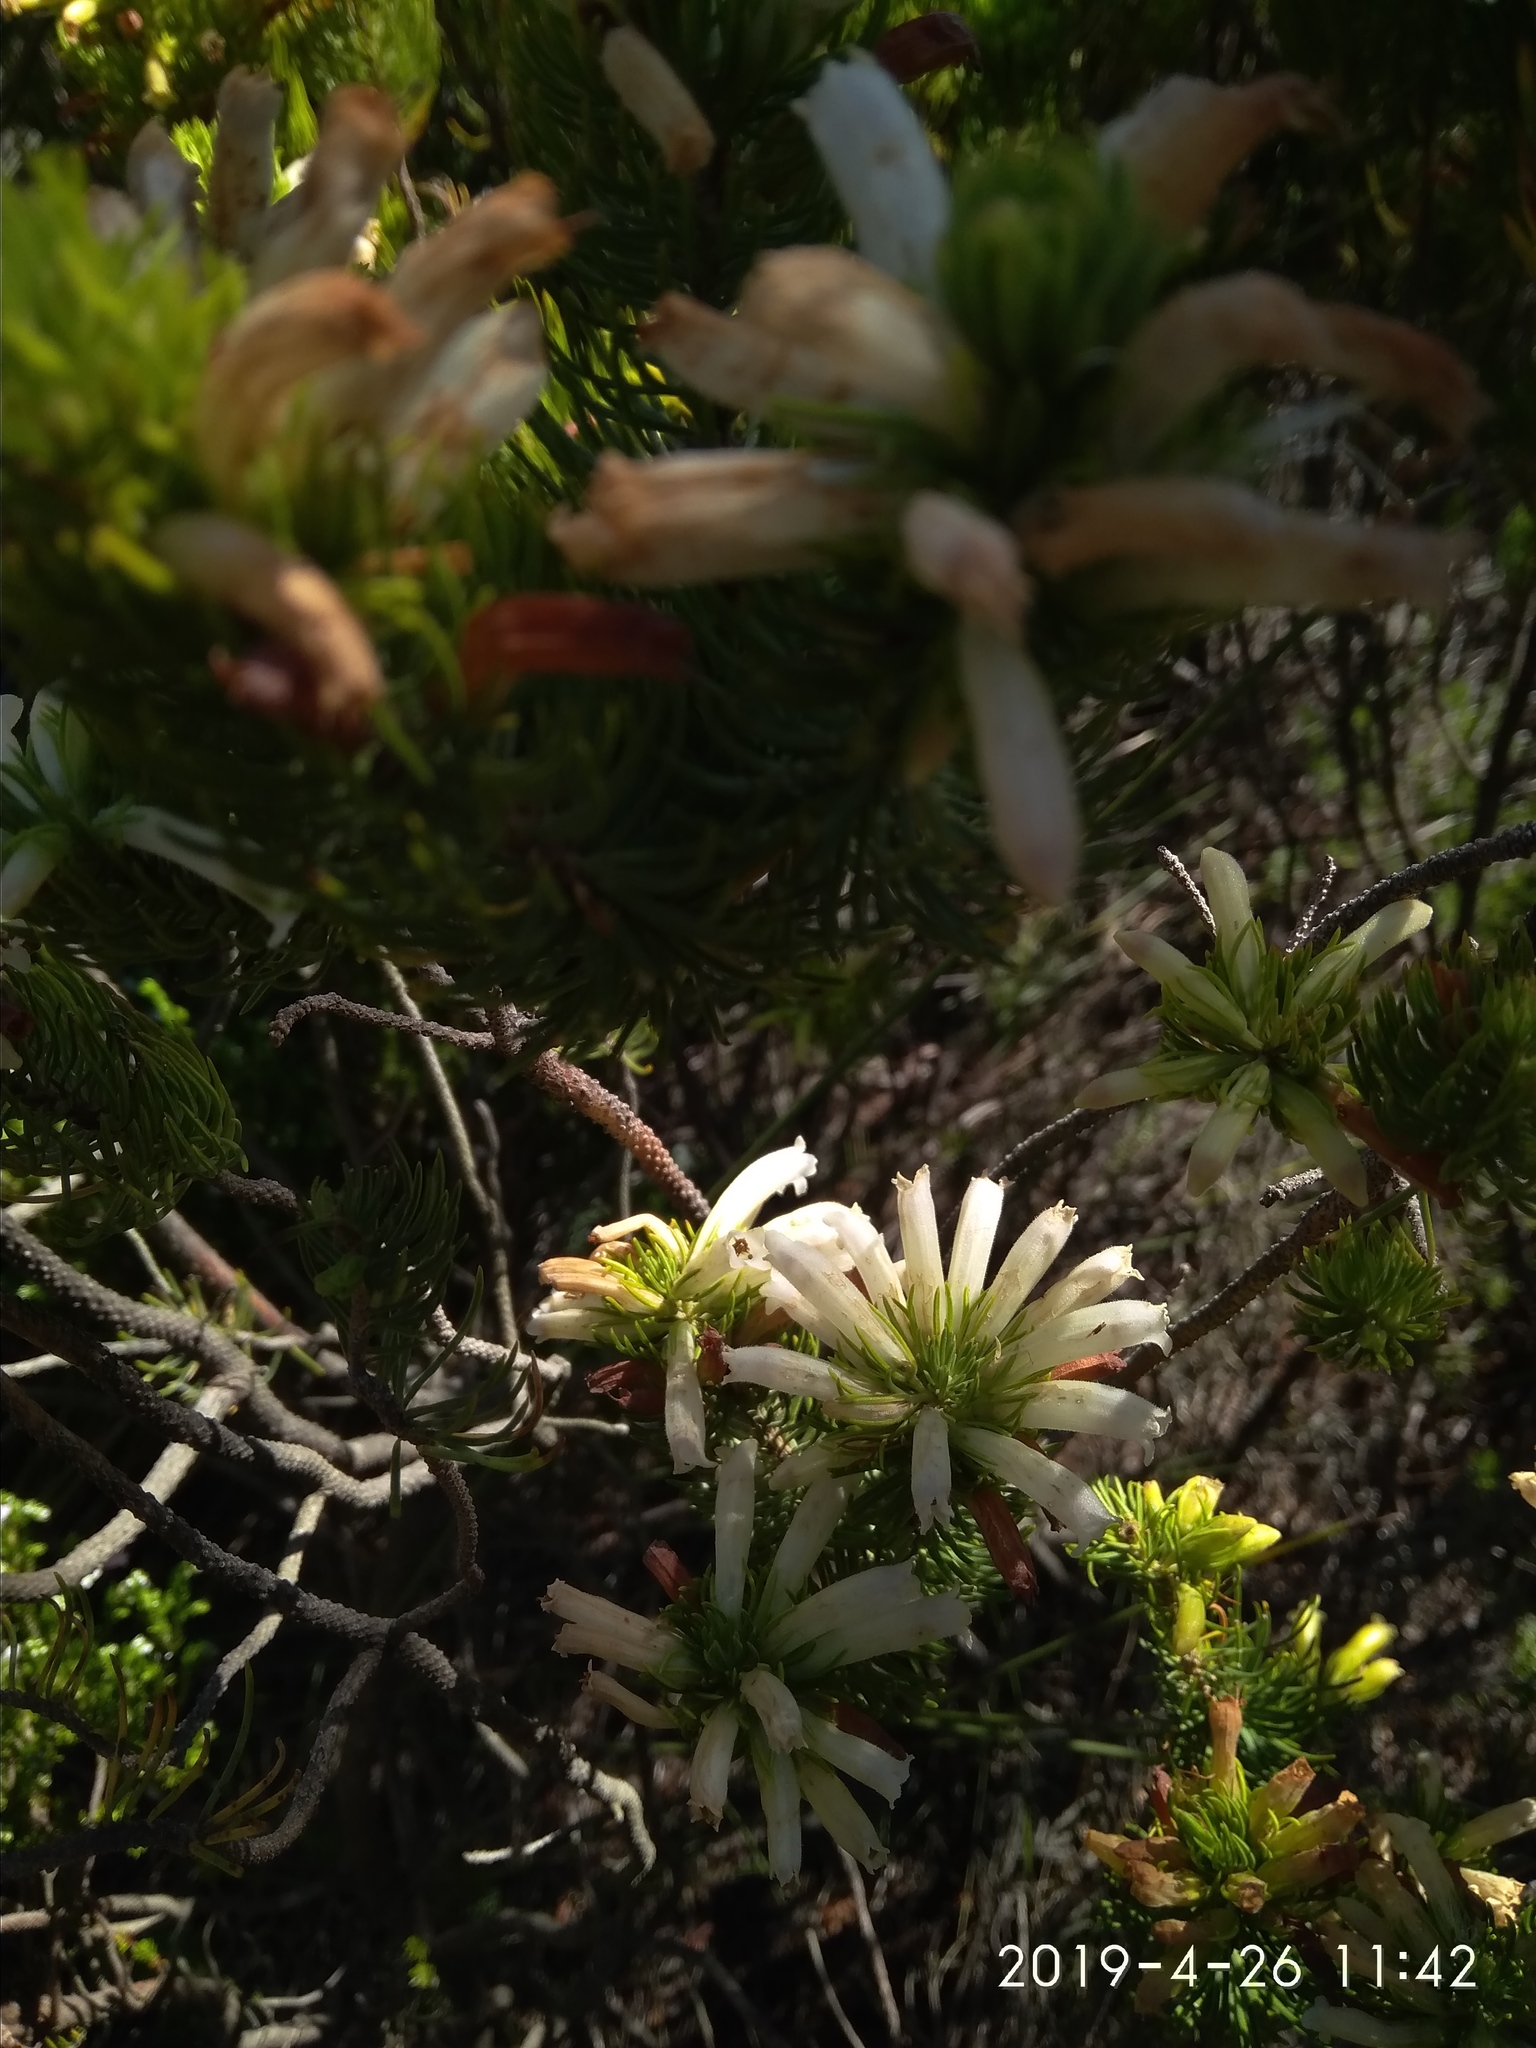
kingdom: Plantae
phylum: Tracheophyta
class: Magnoliopsida
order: Ericales
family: Ericaceae
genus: Erica
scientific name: Erica viscaria
